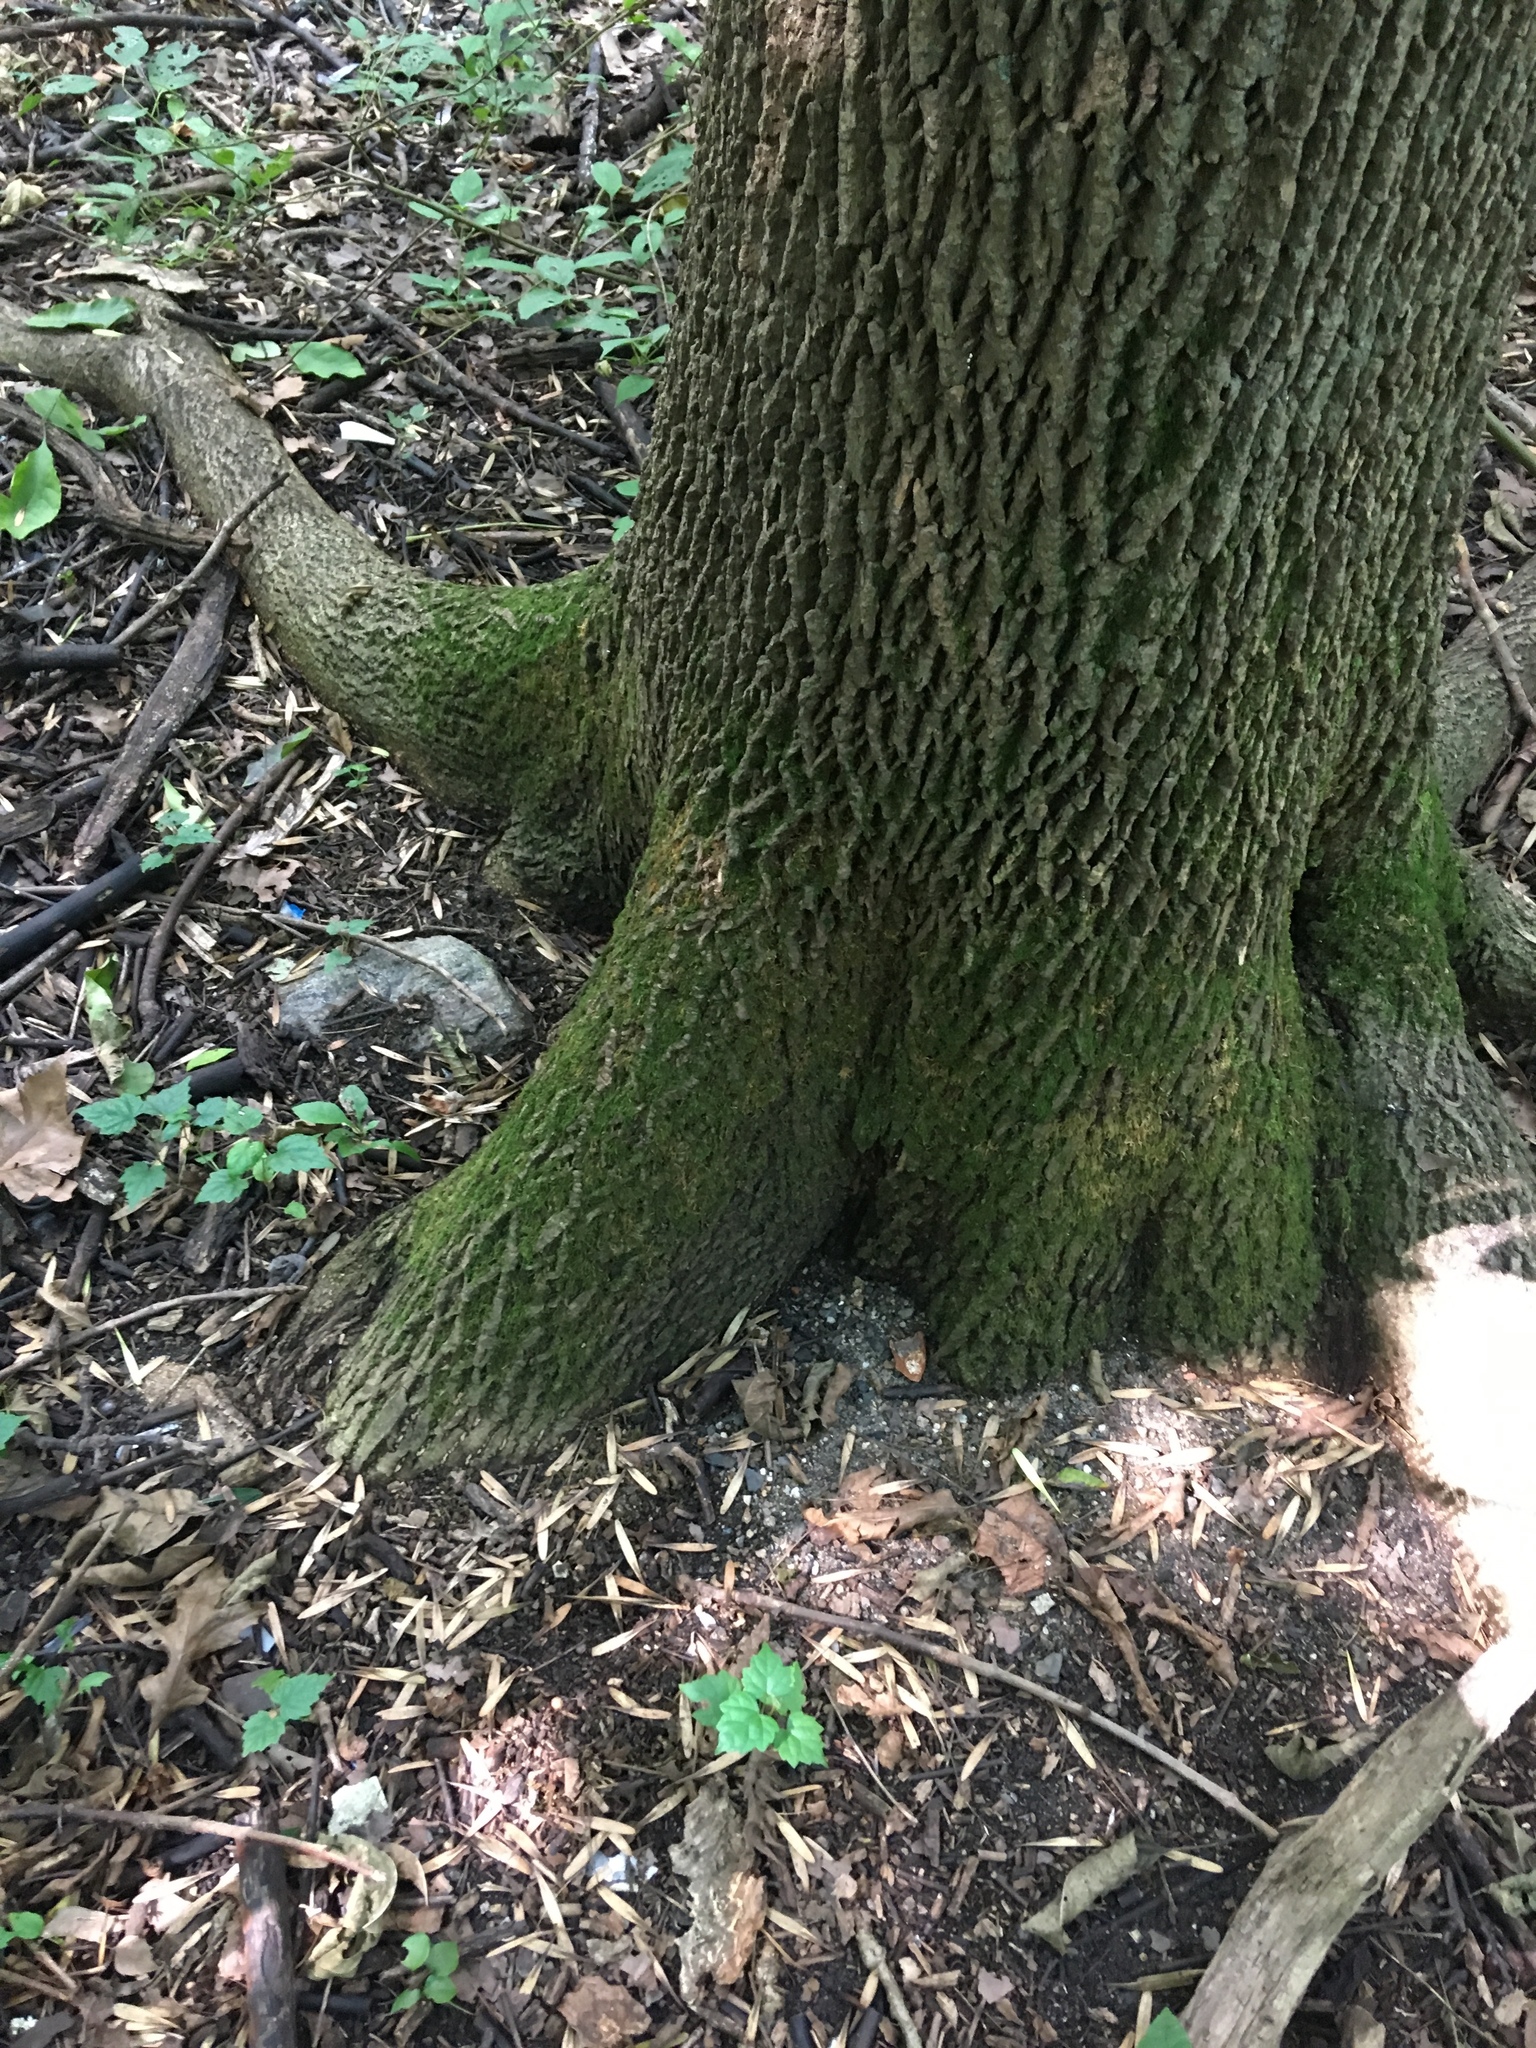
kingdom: Plantae
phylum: Tracheophyta
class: Magnoliopsida
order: Lamiales
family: Oleaceae
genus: Fraxinus
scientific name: Fraxinus pennsylvanica
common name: Green ash
